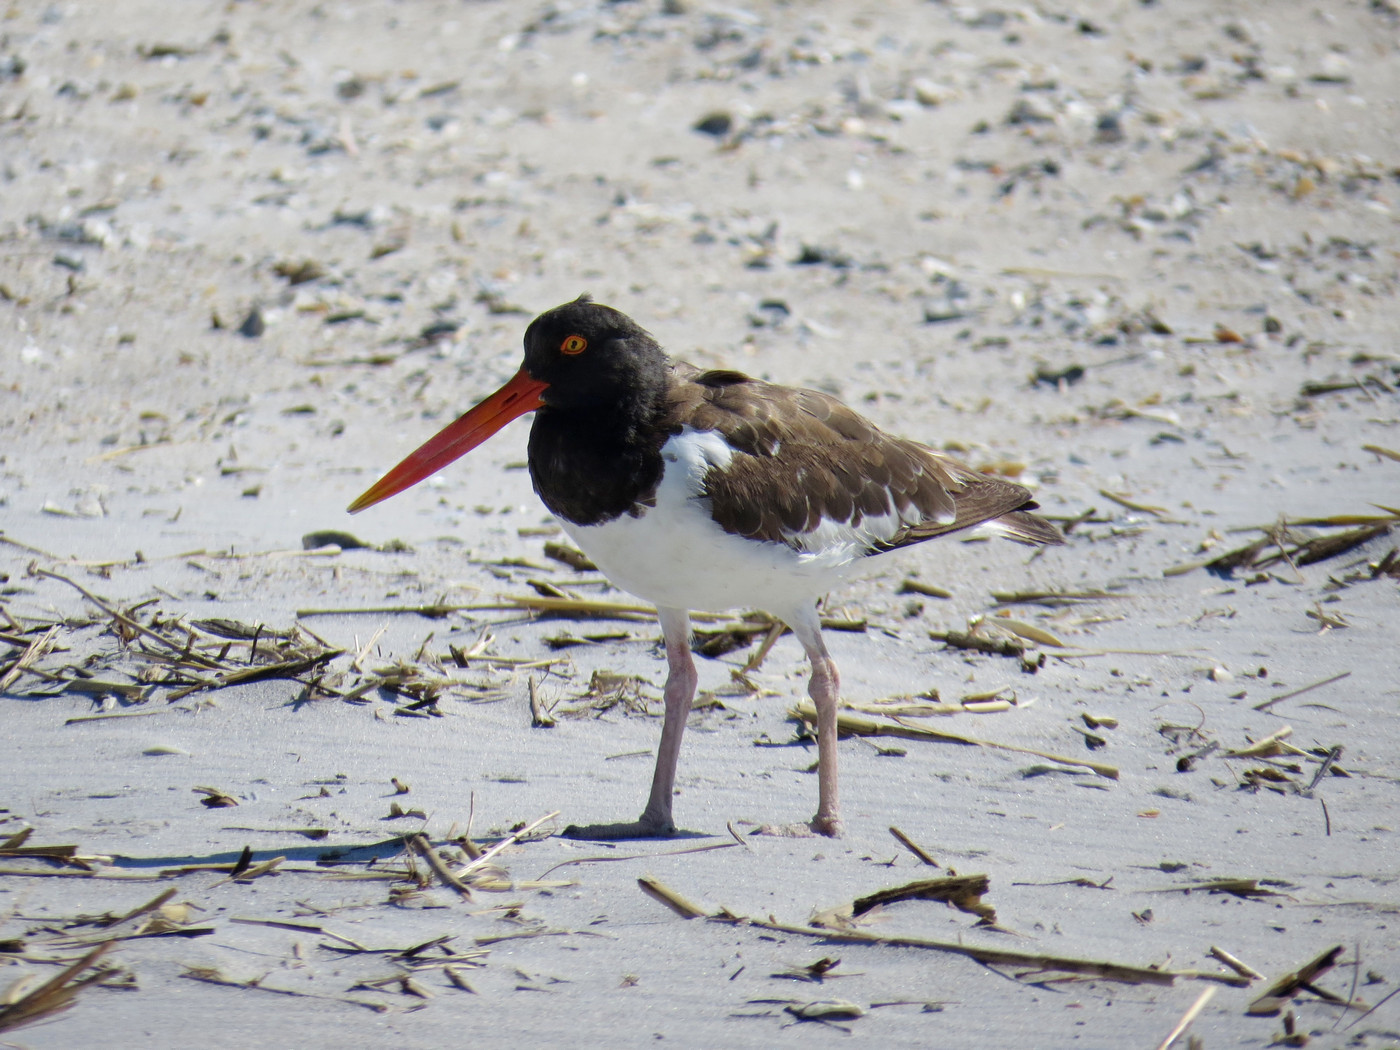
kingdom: Animalia
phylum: Chordata
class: Aves
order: Charadriiformes
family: Haematopodidae
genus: Haematopus
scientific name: Haematopus palliatus
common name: American oystercatcher
